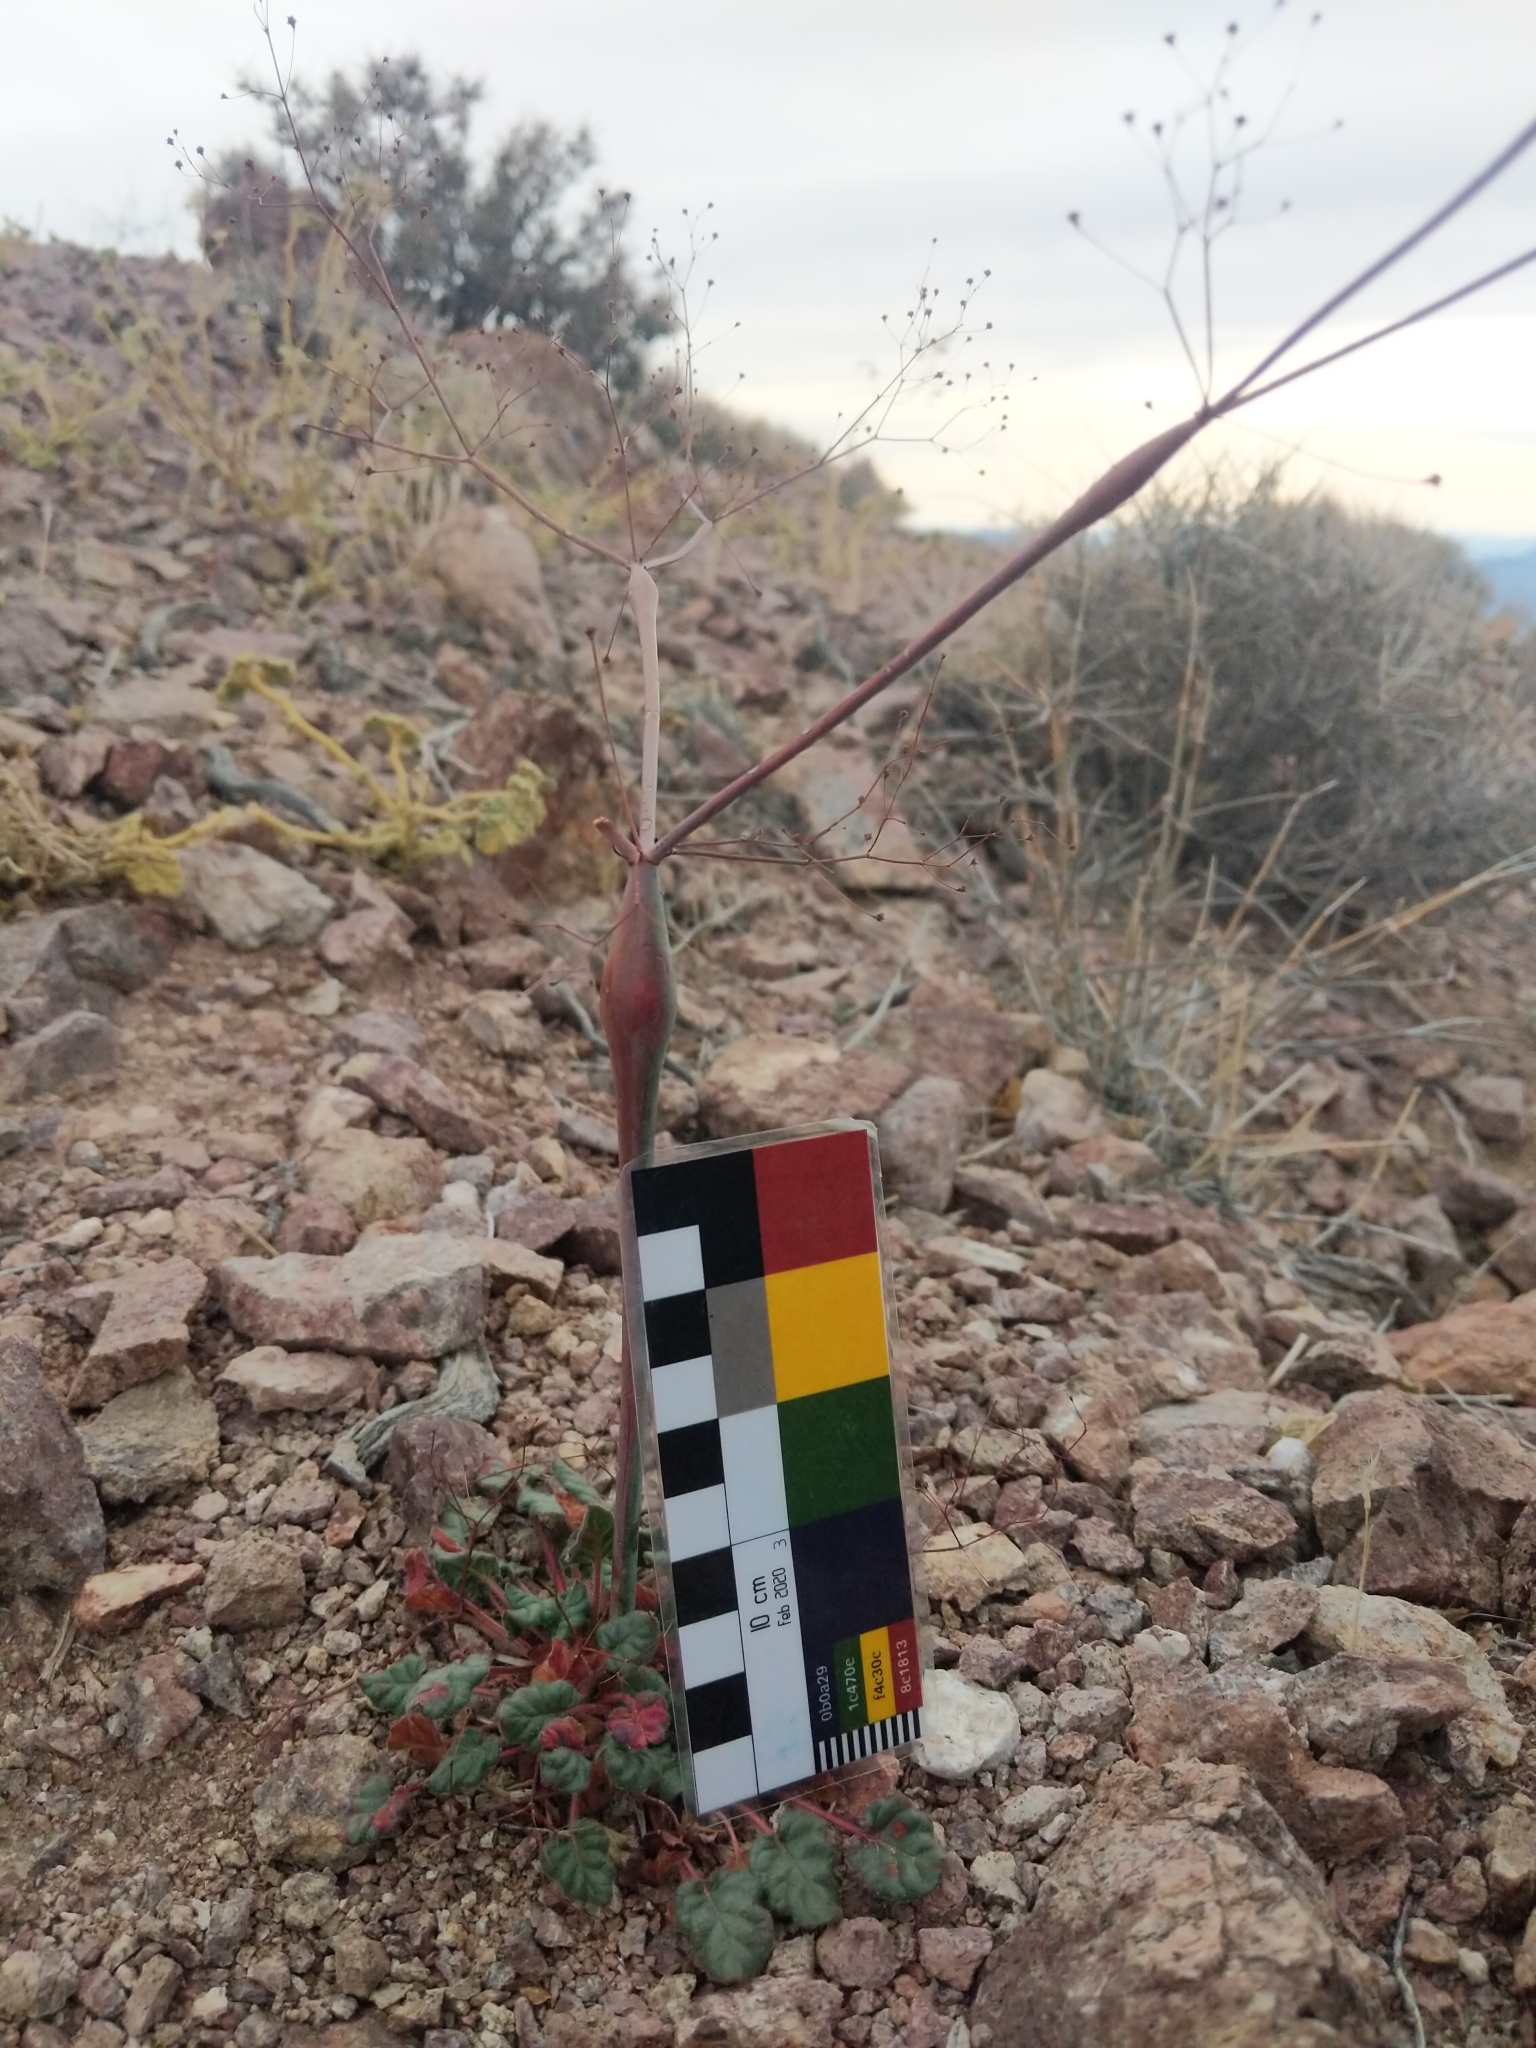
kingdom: Plantae
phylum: Tracheophyta
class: Magnoliopsida
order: Caryophyllales
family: Polygonaceae
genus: Eriogonum
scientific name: Eriogonum inflatum
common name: Desert trumpet
